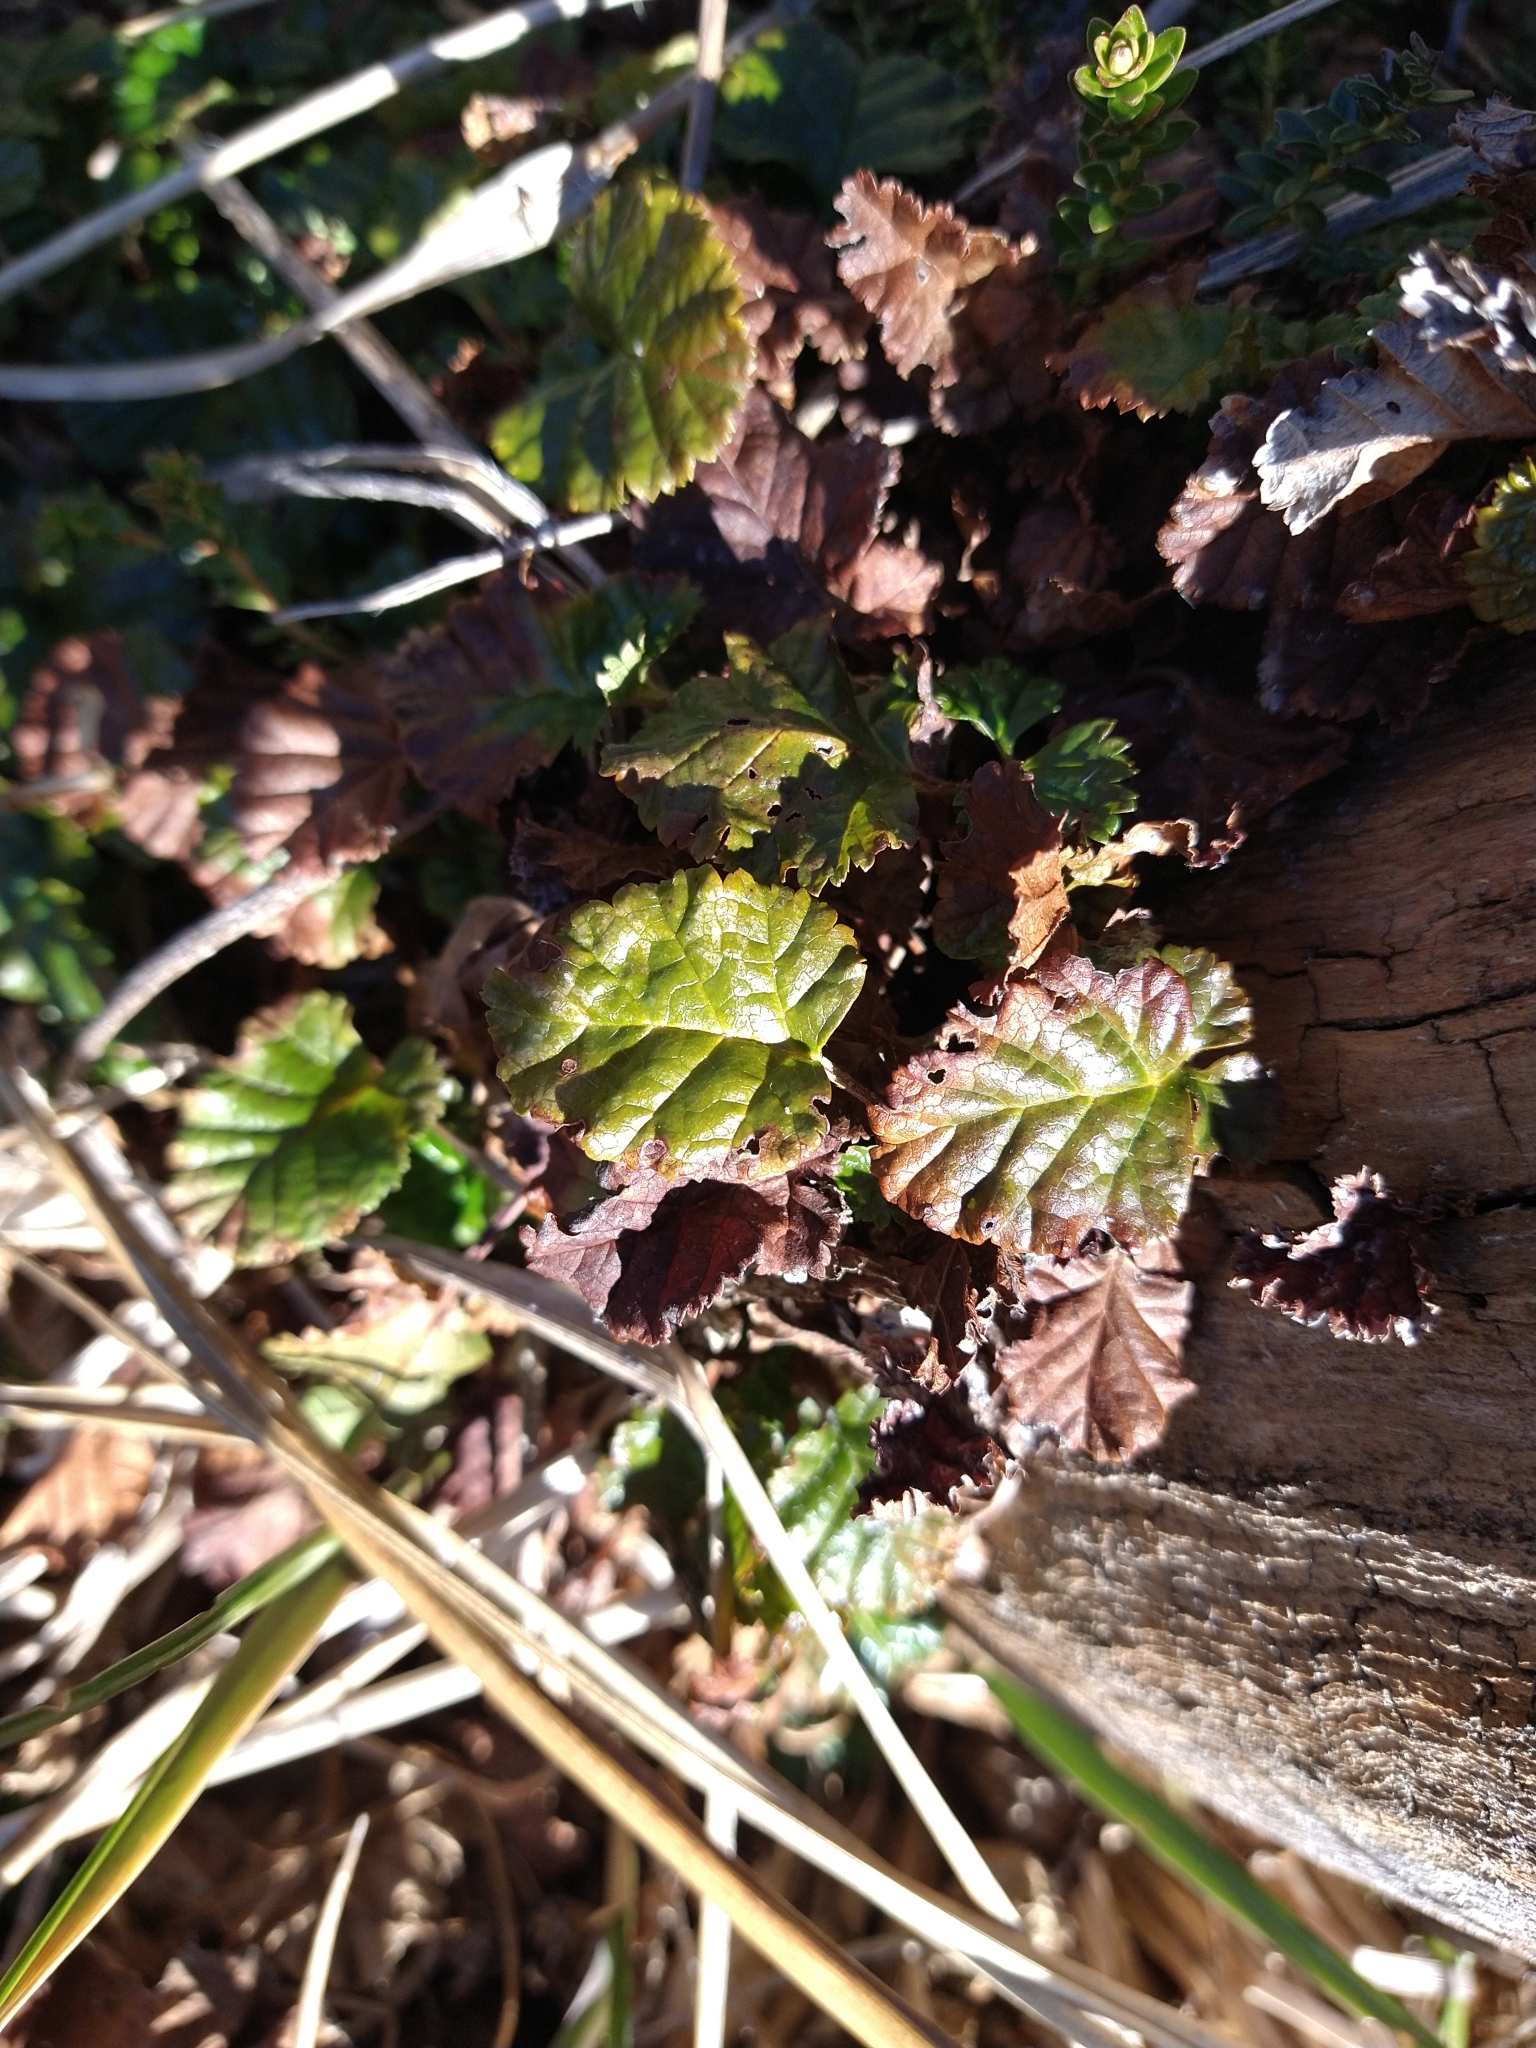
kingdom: Plantae
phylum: Tracheophyta
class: Magnoliopsida
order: Rosales
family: Rosaceae
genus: Rubus
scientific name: Rubus geoides
